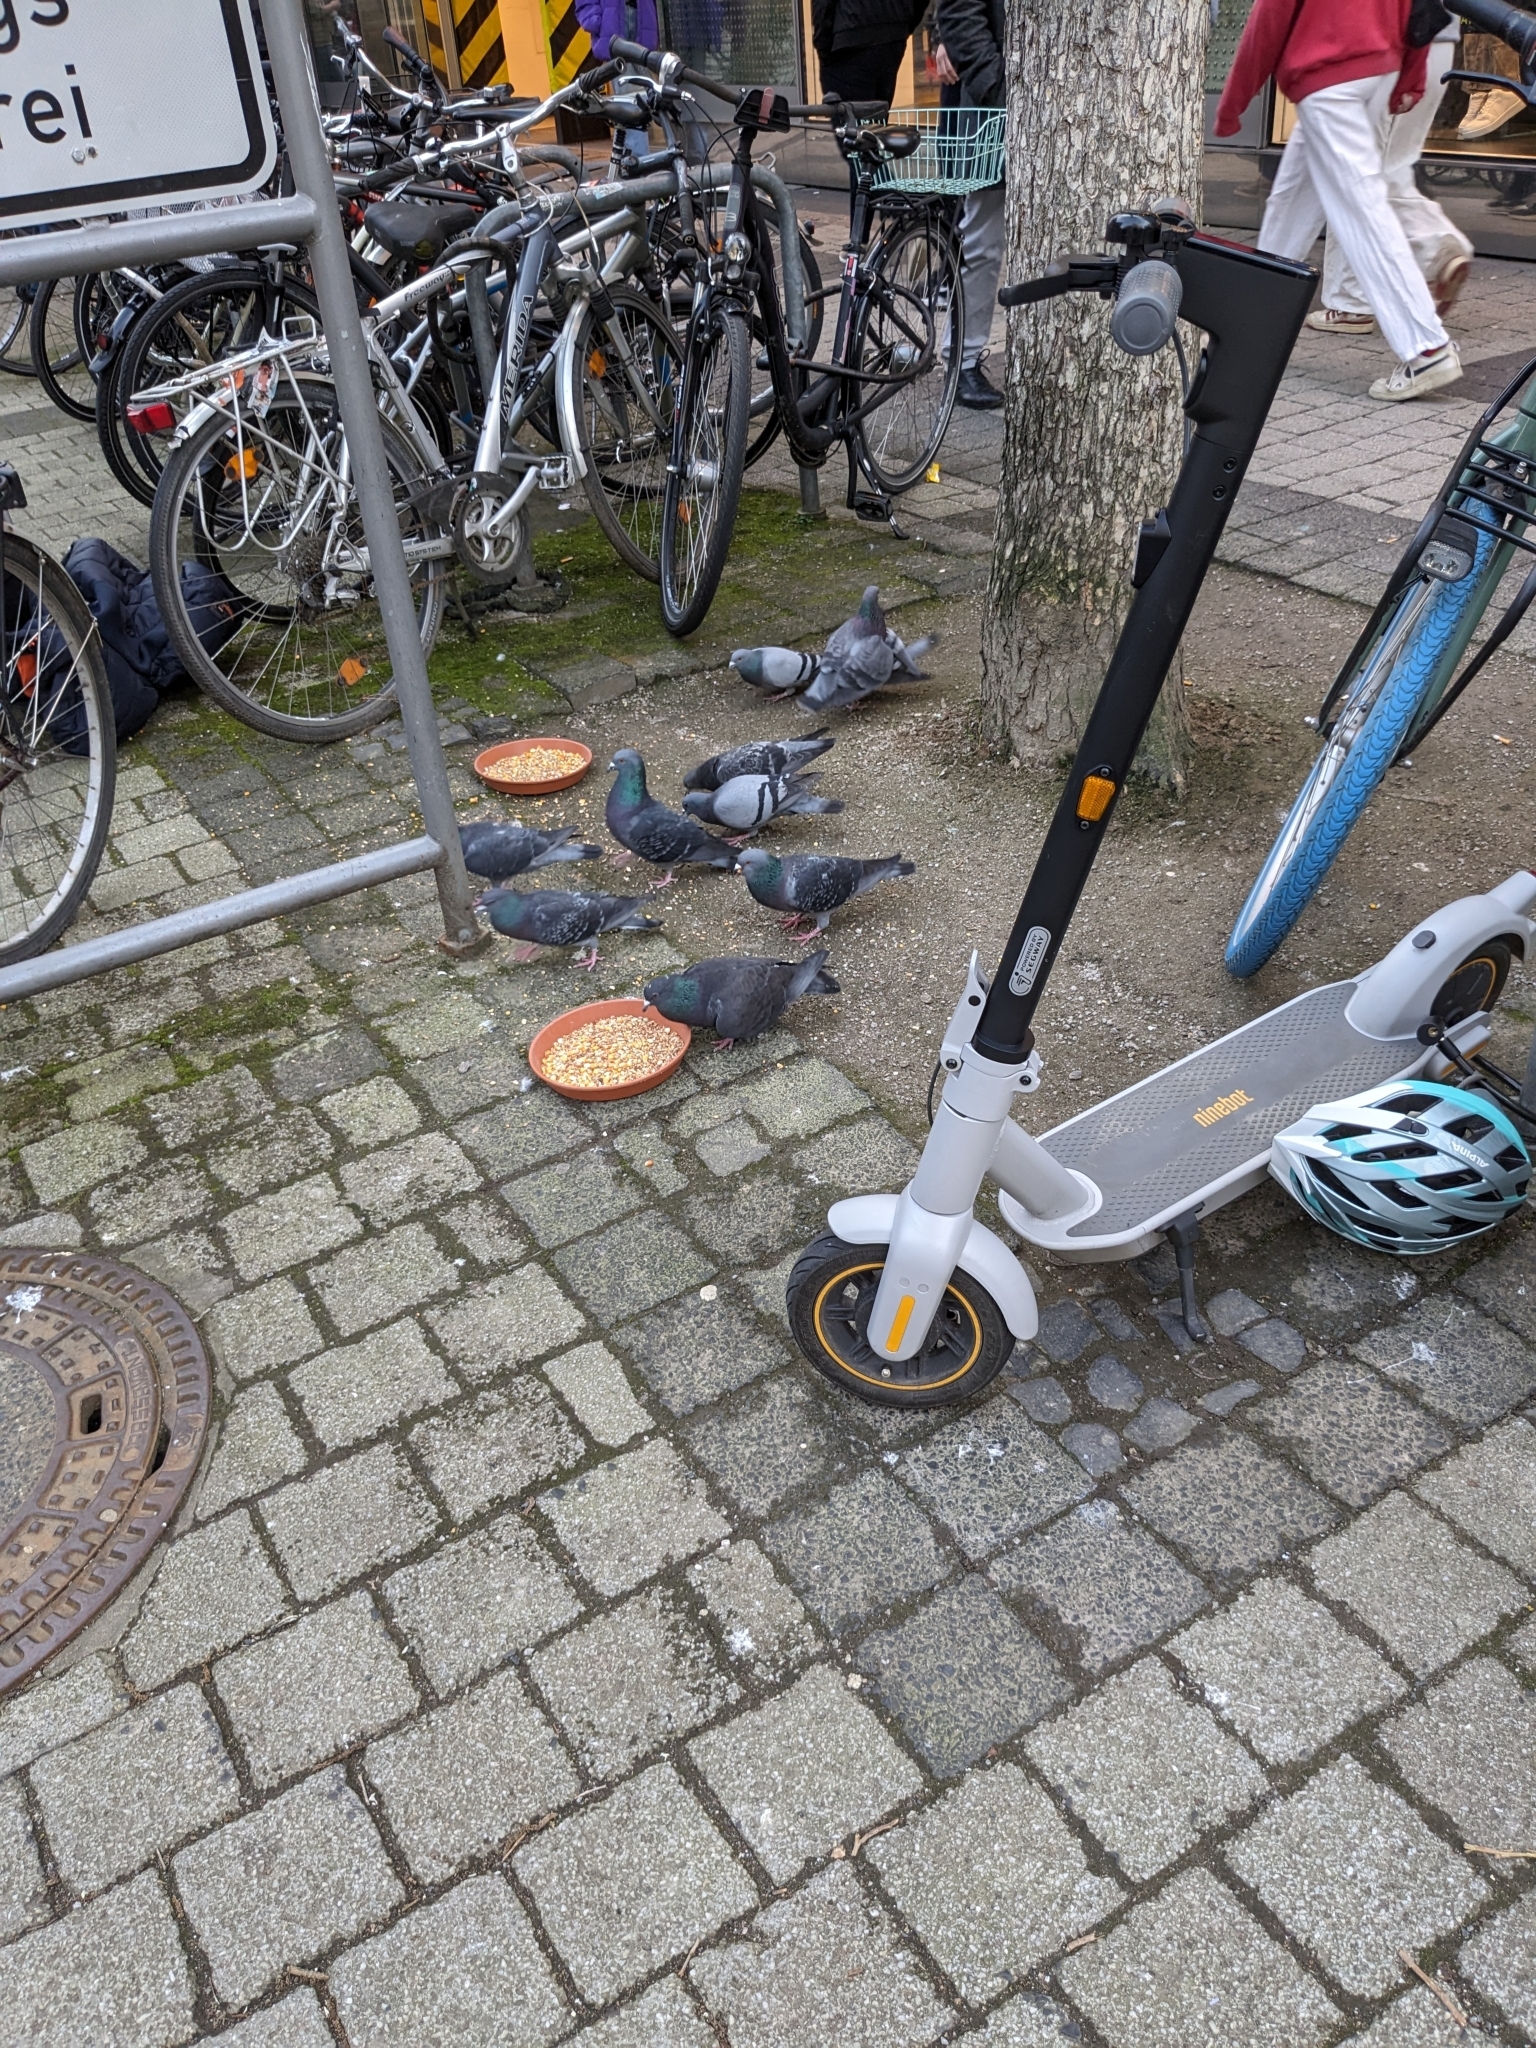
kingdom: Animalia
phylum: Chordata
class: Aves
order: Columbiformes
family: Columbidae
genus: Columba
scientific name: Columba livia
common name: Rock pigeon
